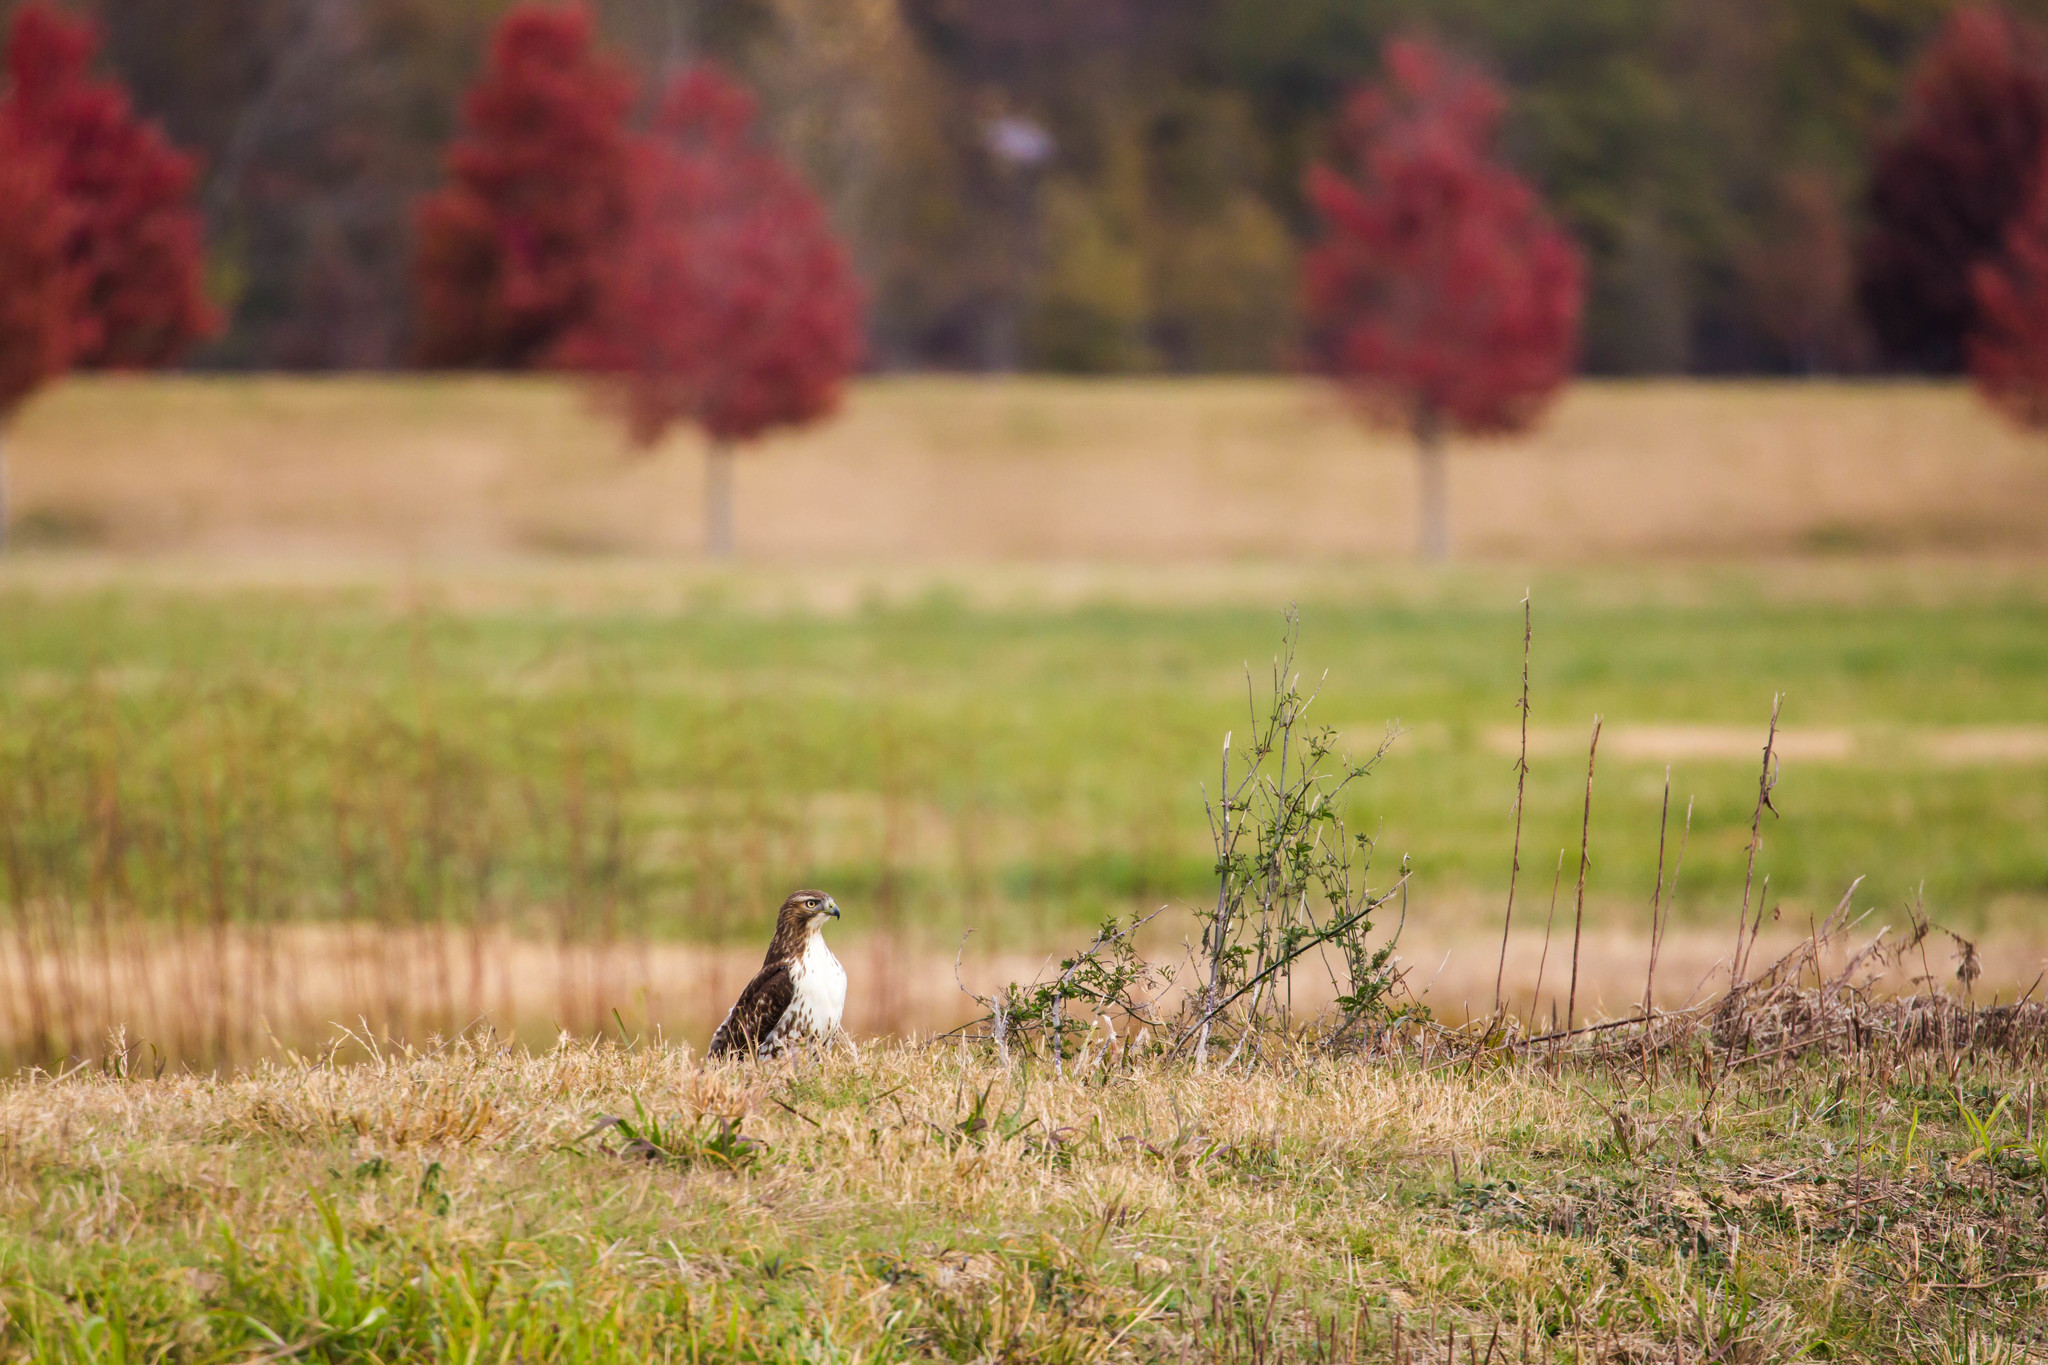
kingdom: Animalia
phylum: Chordata
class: Aves
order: Accipitriformes
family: Accipitridae
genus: Buteo
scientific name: Buteo jamaicensis
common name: Red-tailed hawk
